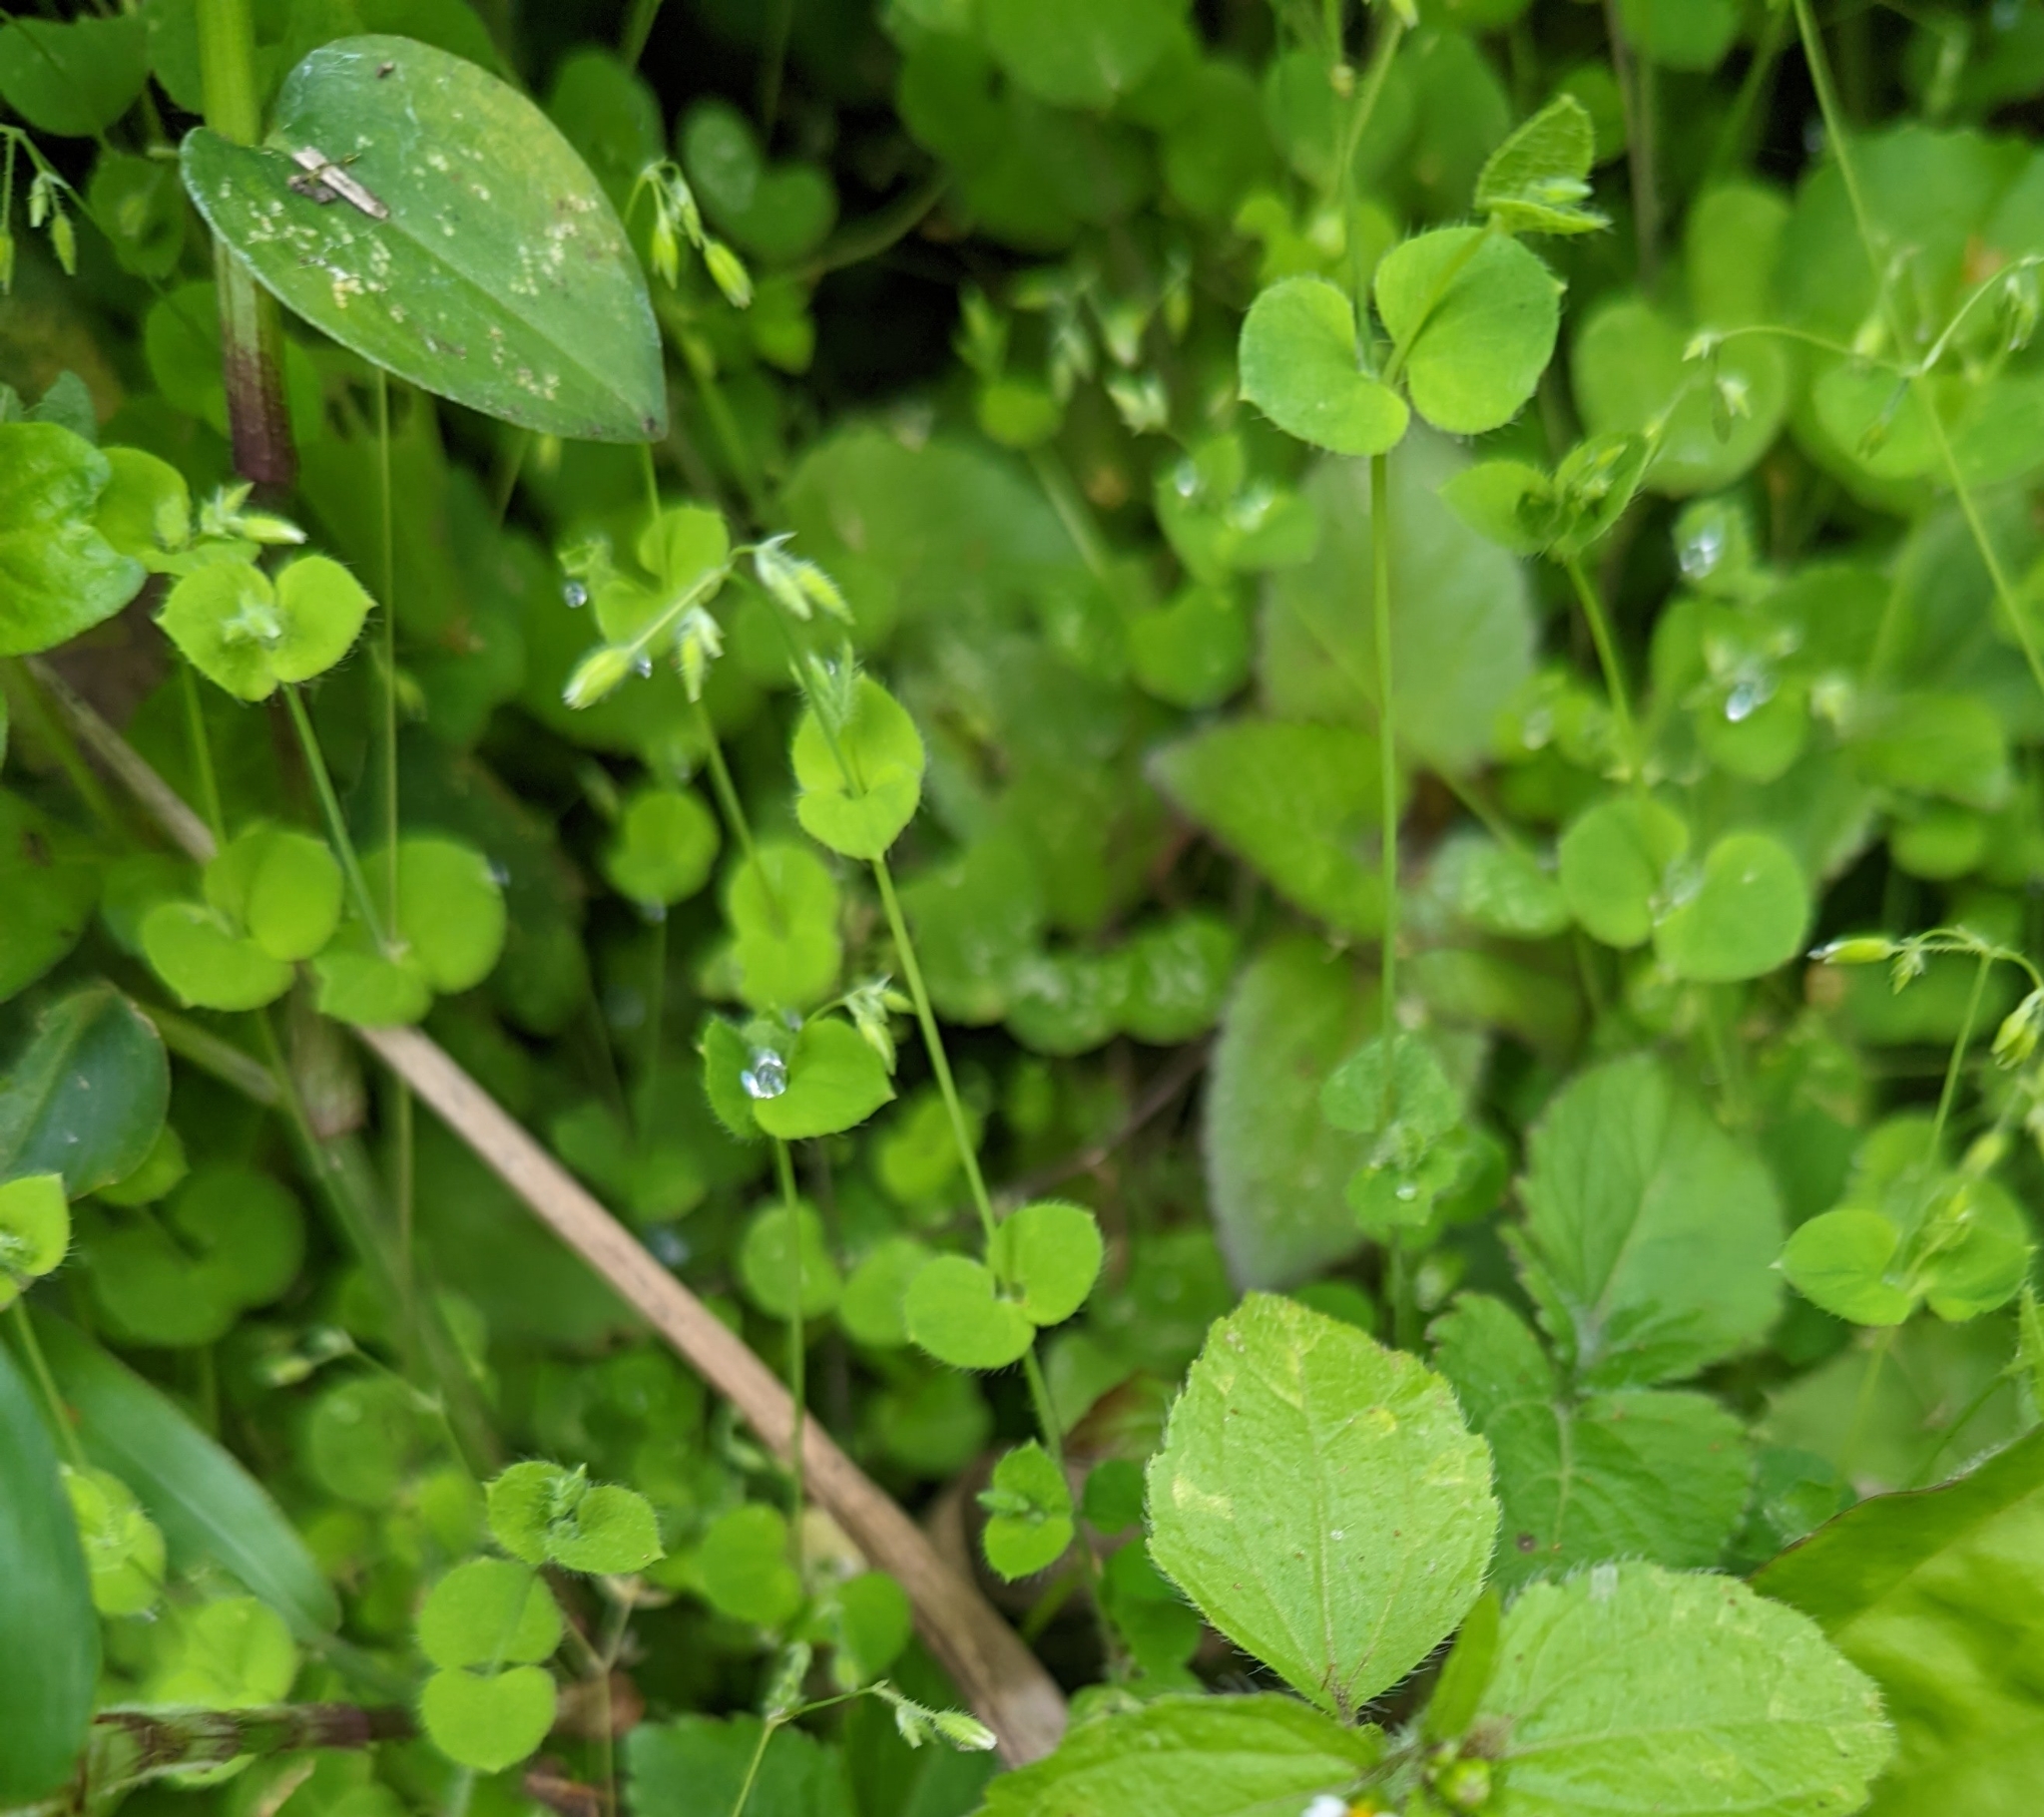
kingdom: Plantae
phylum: Tracheophyta
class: Magnoliopsida
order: Caryophyllales
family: Caryophyllaceae
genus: Drymaria
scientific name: Drymaria cordata
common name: Whitesnow
